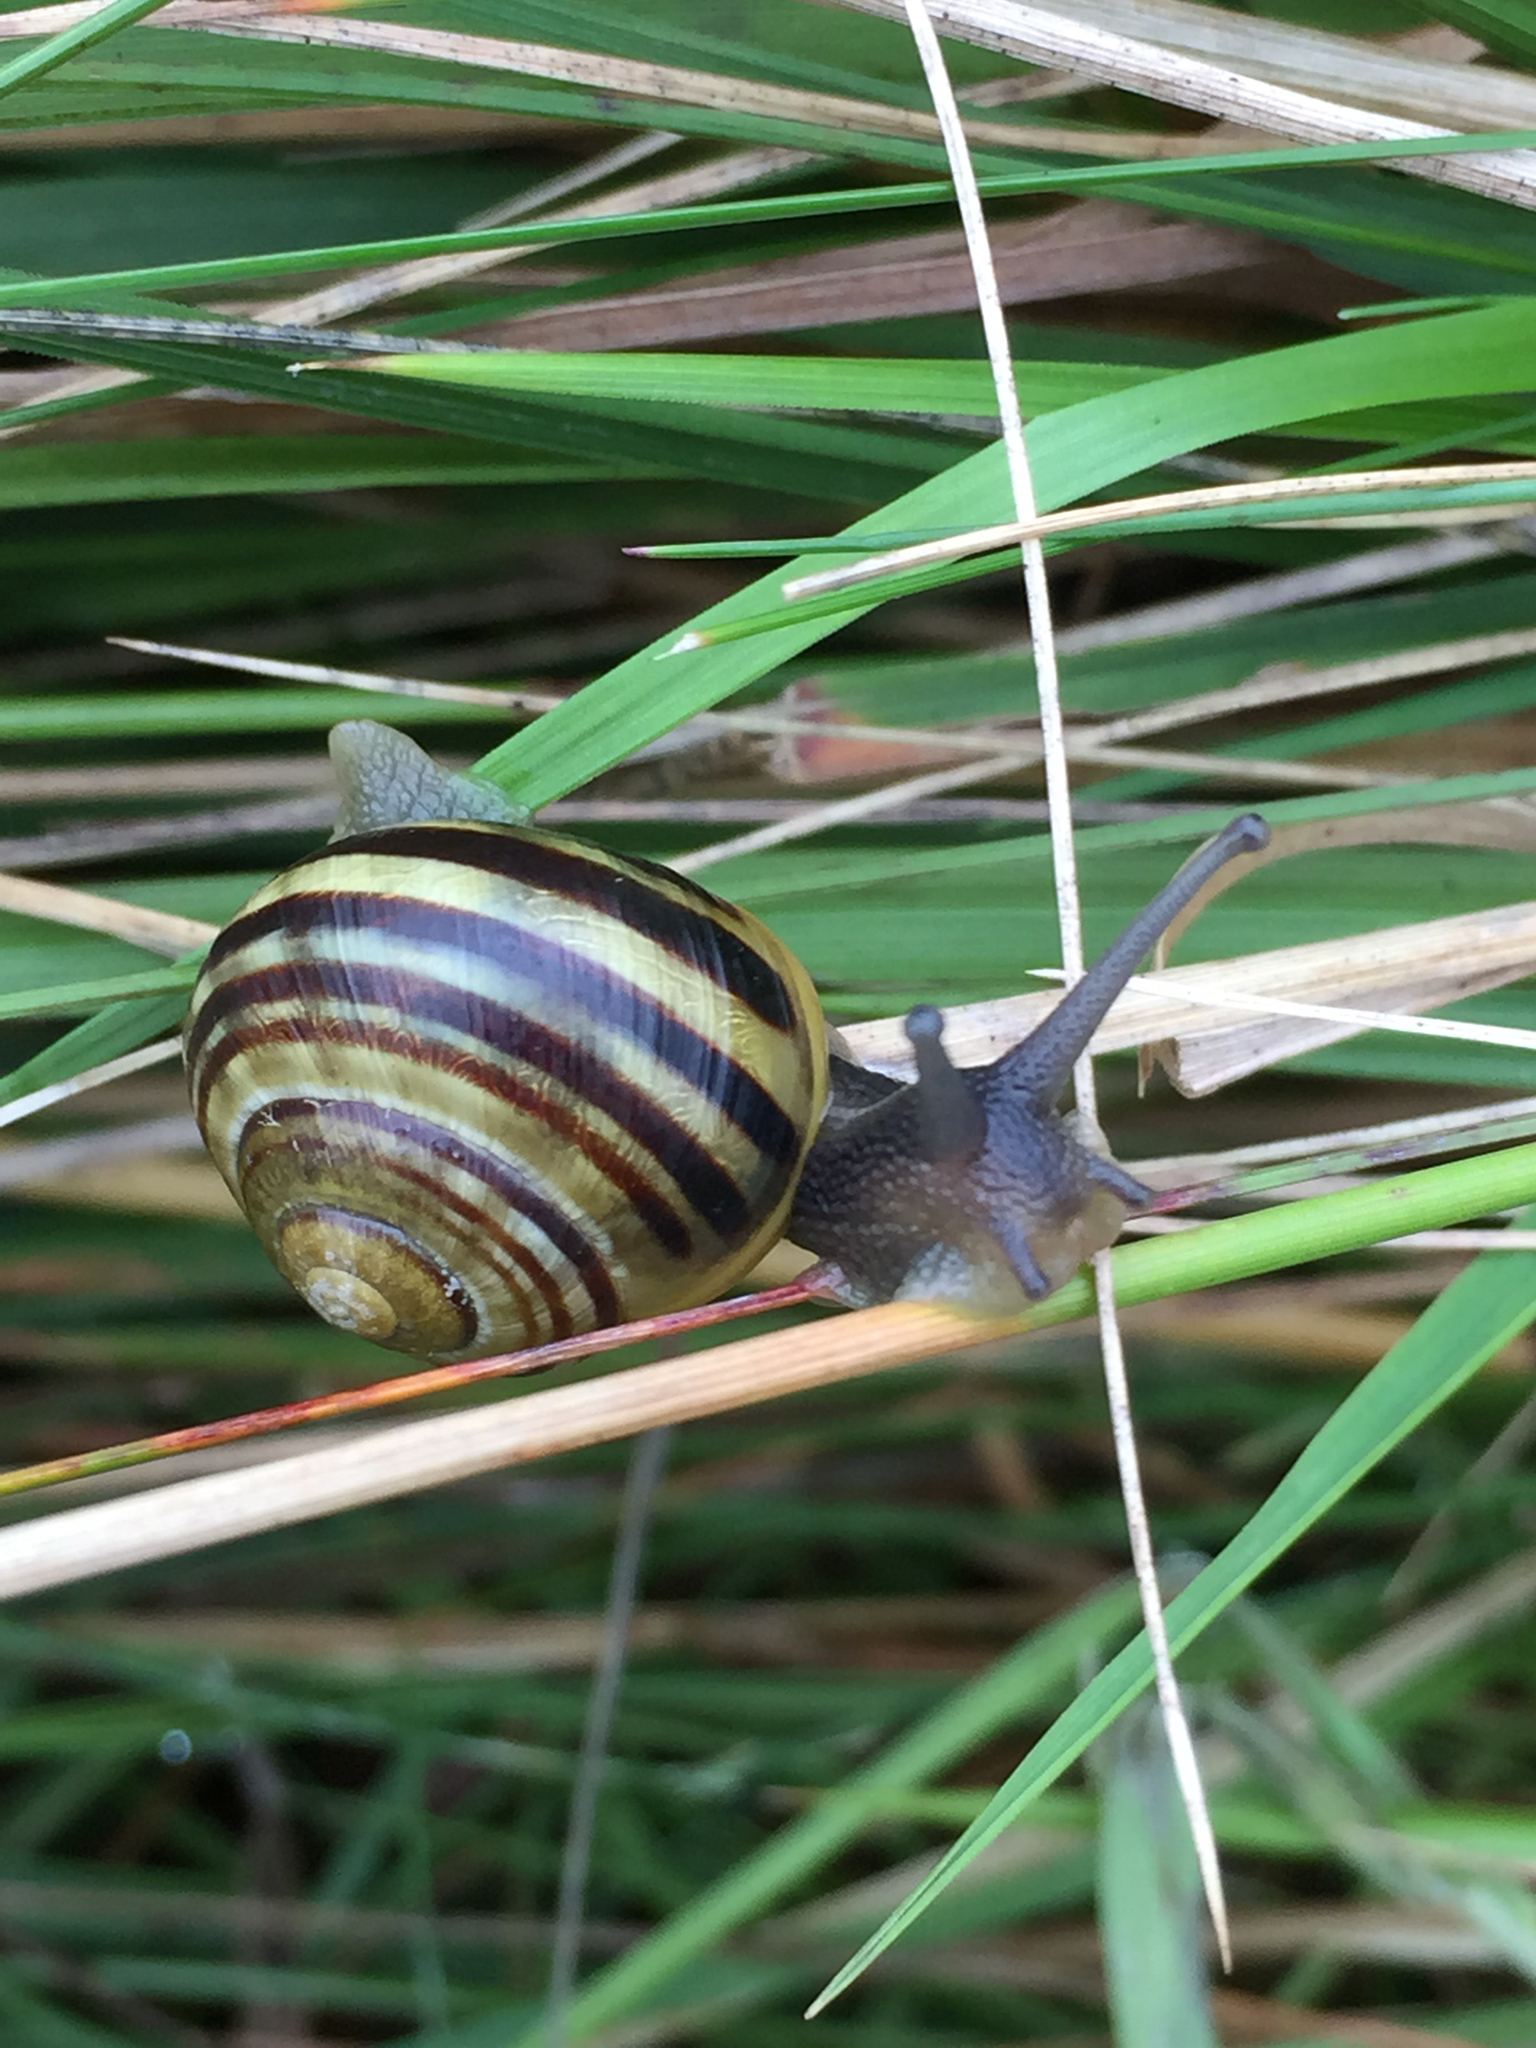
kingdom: Animalia
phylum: Mollusca
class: Gastropoda
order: Stylommatophora
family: Helicidae
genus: Cepaea
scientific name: Cepaea nemoralis
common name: Grovesnail
